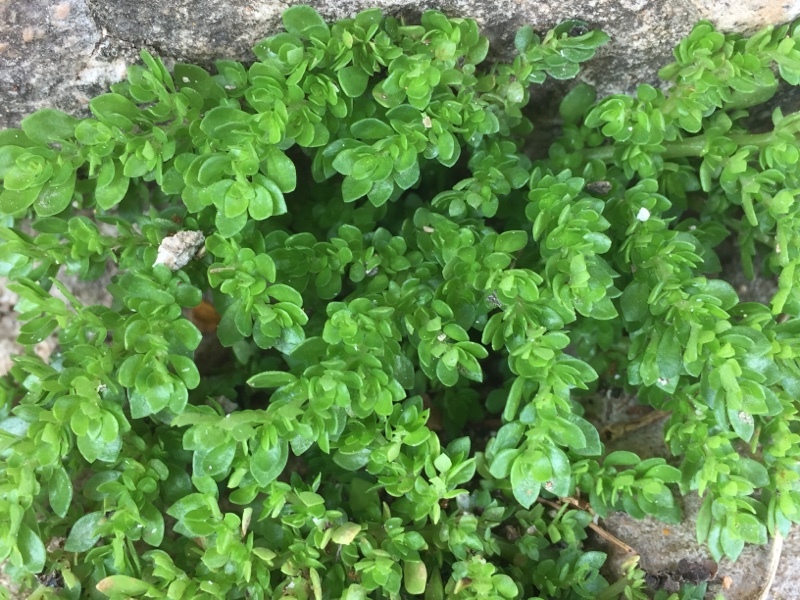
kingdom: Plantae
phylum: Tracheophyta
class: Magnoliopsida
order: Rosales
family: Urticaceae
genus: Pilea
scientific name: Pilea microphylla
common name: Artillery-plant
